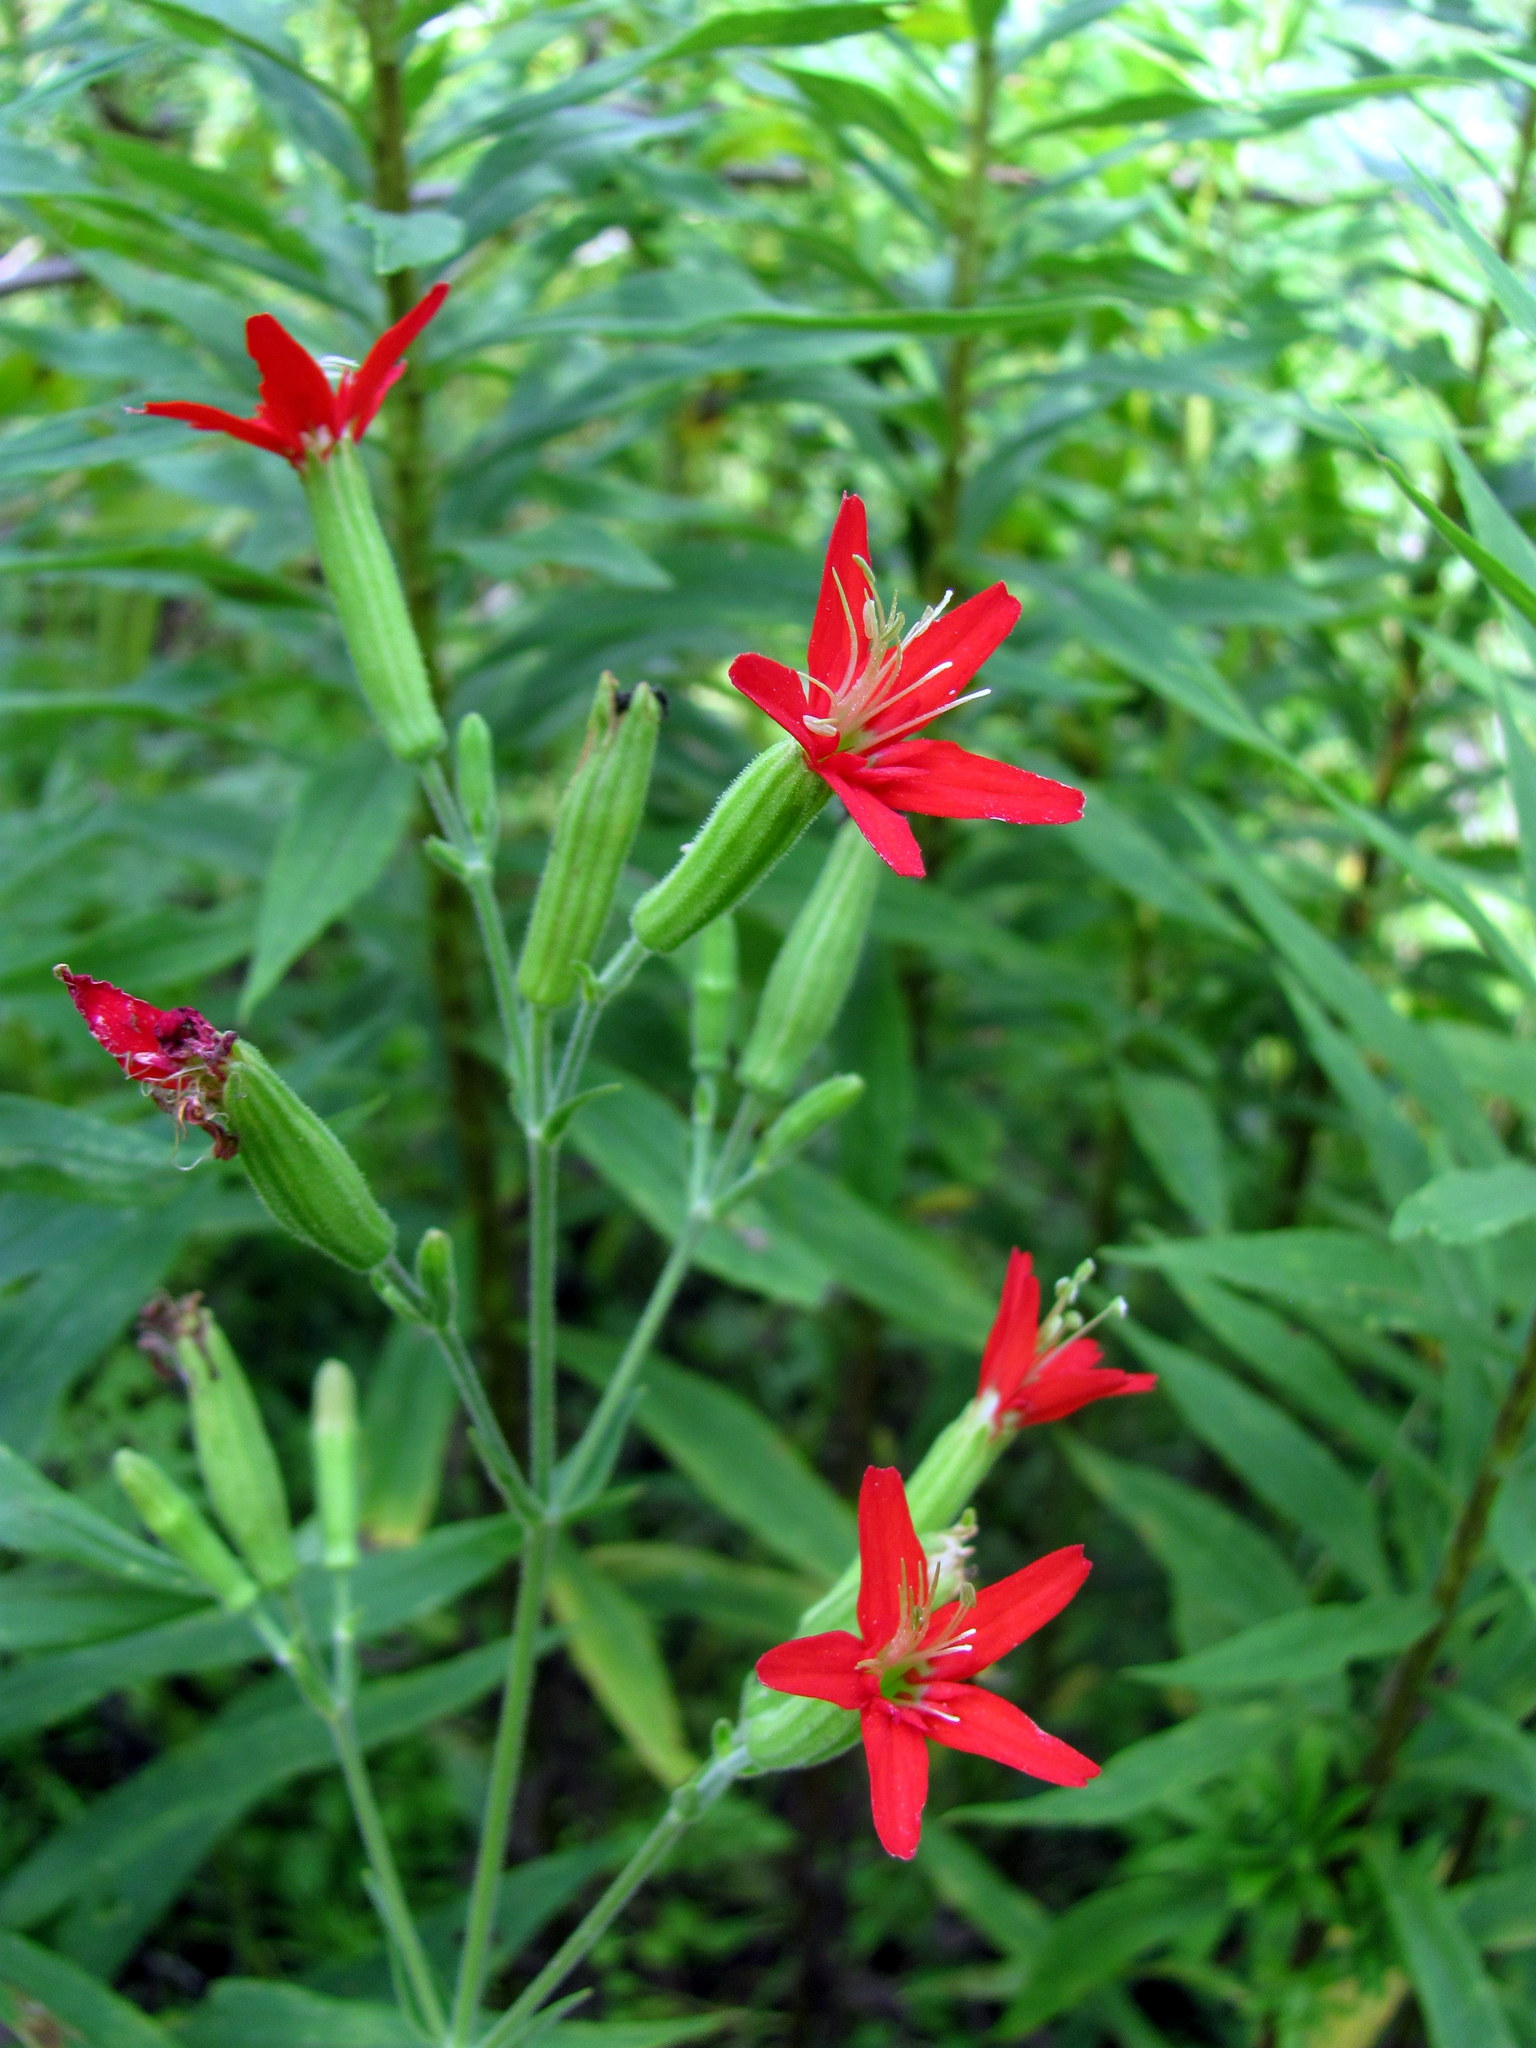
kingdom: Plantae
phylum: Tracheophyta
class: Magnoliopsida
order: Caryophyllales
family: Caryophyllaceae
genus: Silene
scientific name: Silene regia
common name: Royal catchfly
